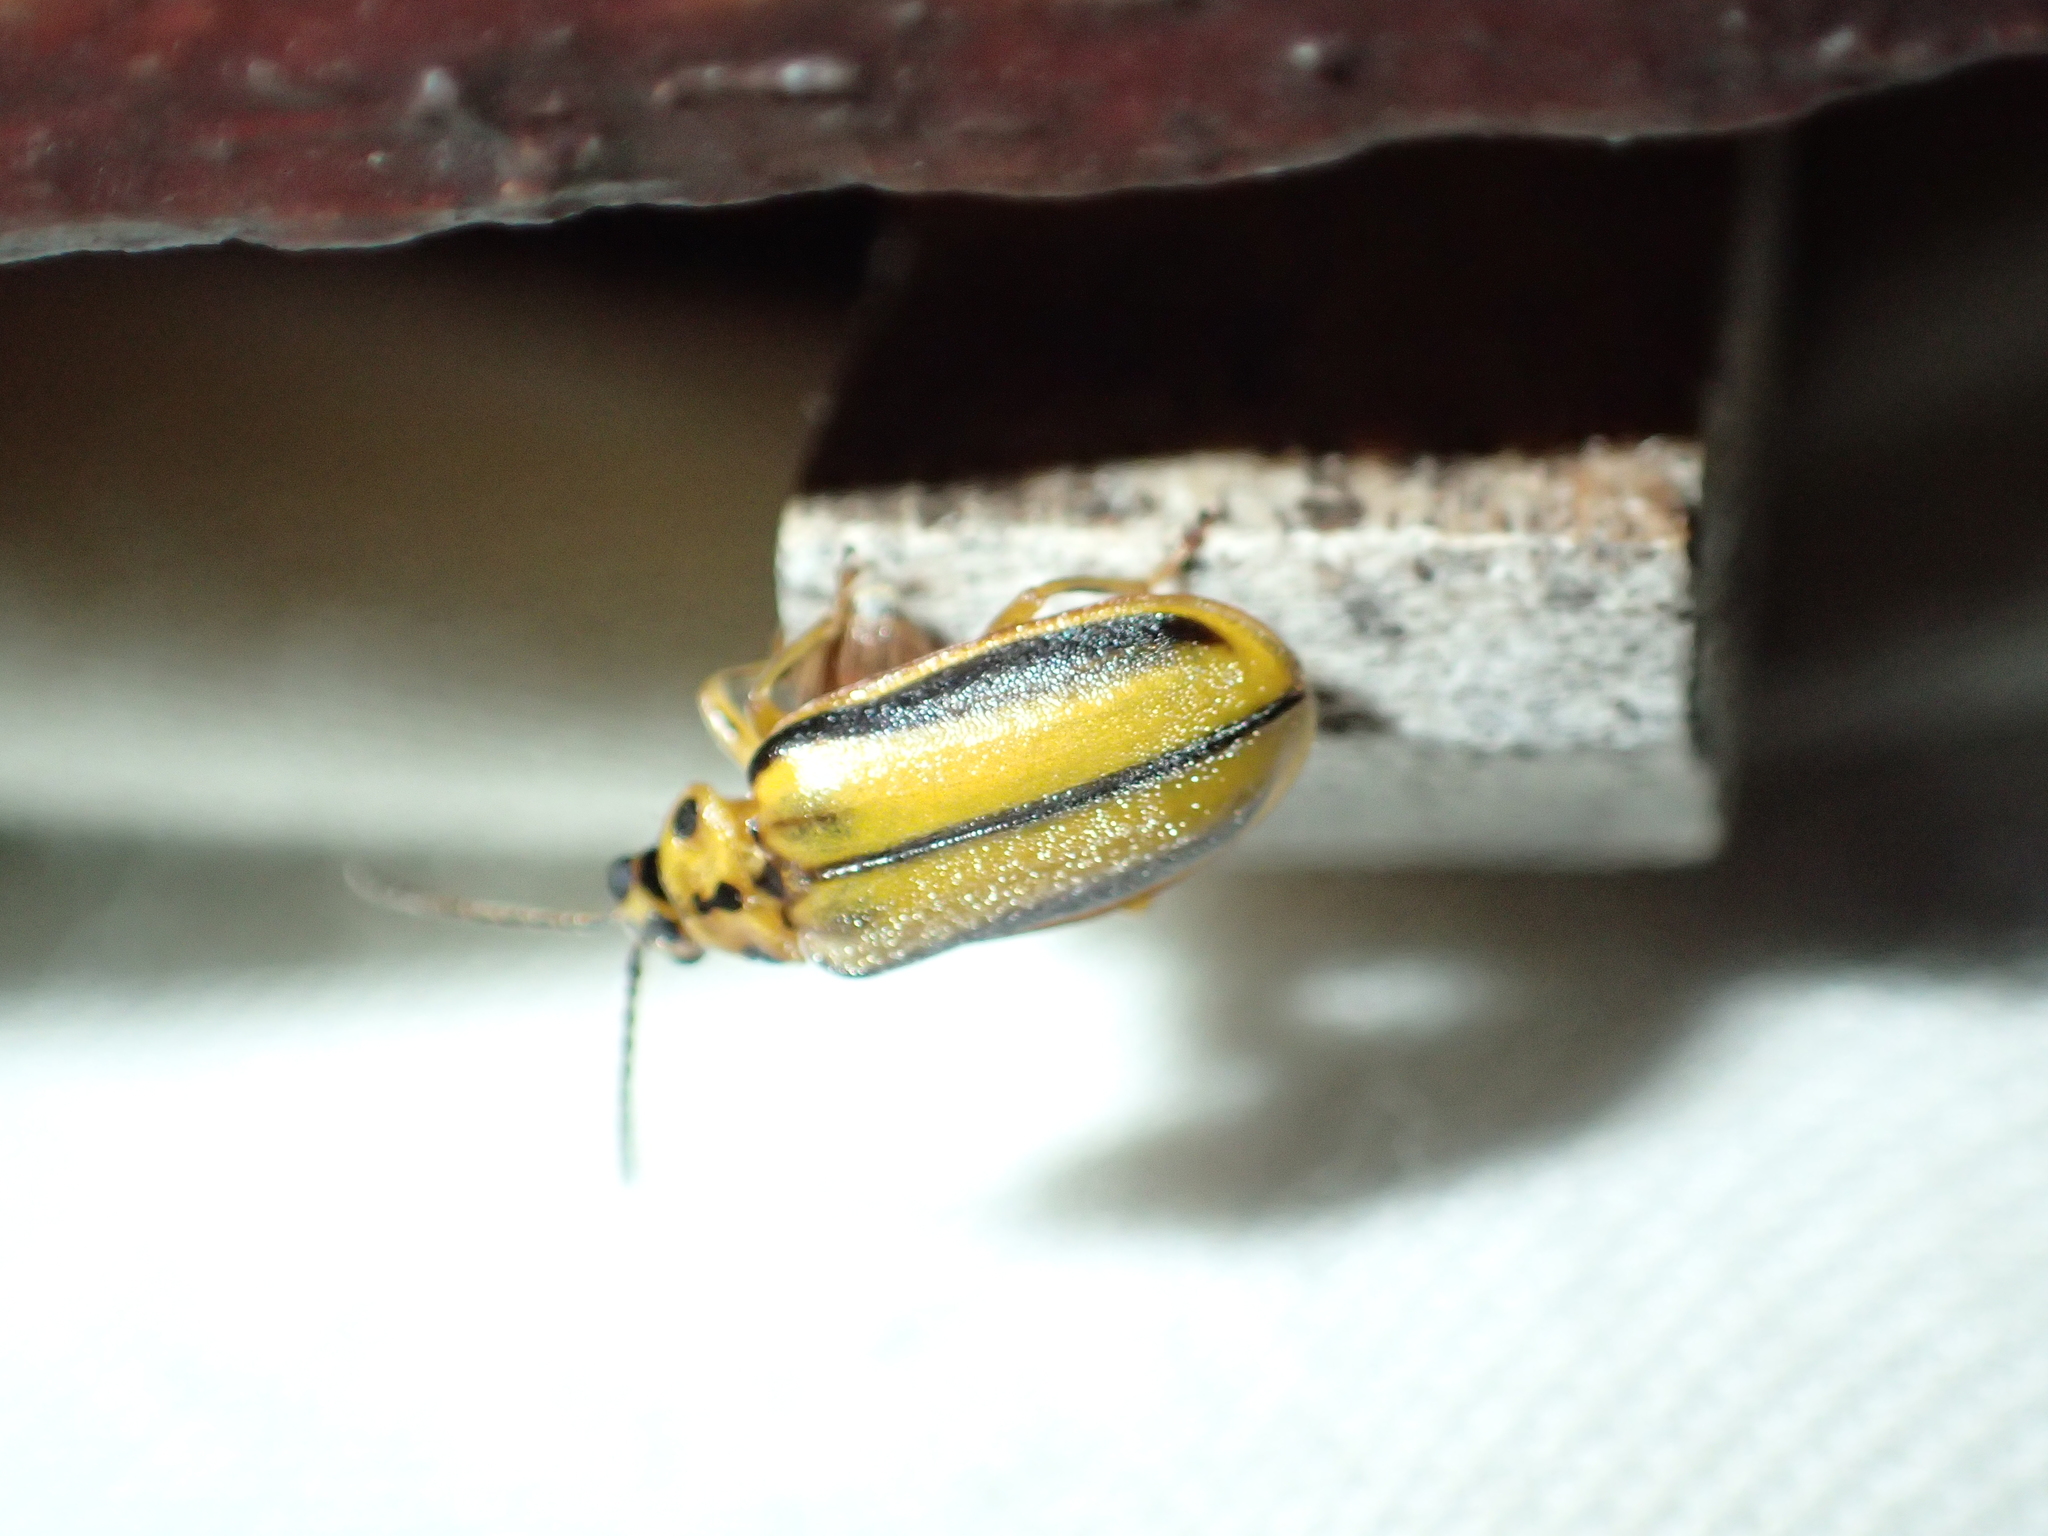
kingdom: Animalia
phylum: Arthropoda
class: Insecta
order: Coleoptera
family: Chrysomelidae
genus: Xanthogaleruca
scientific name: Xanthogaleruca luteola
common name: Elm leaf beetle
